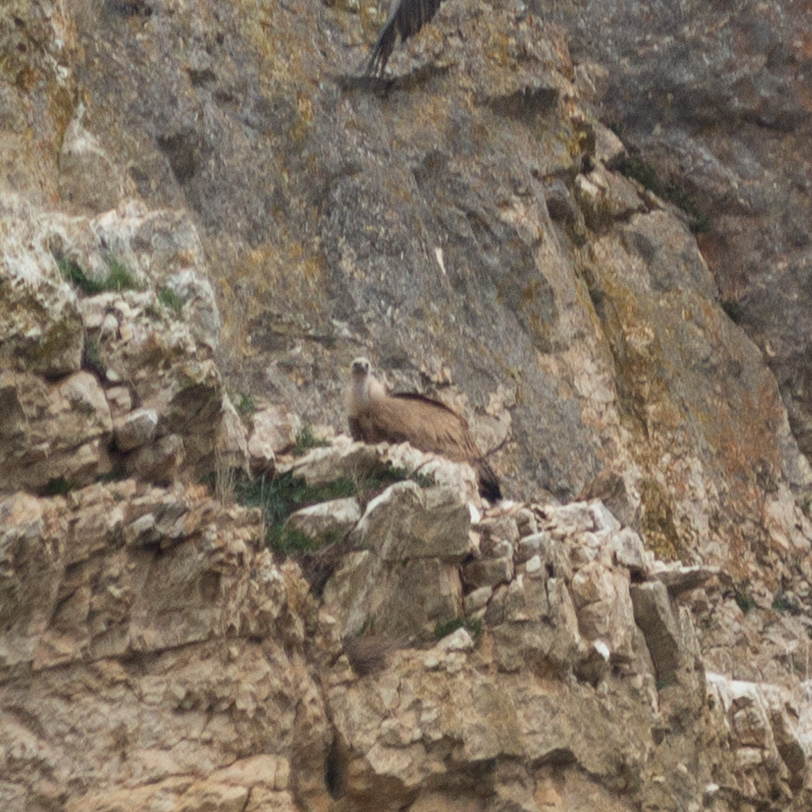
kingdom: Animalia
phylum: Chordata
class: Aves
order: Accipitriformes
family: Accipitridae
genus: Gyps
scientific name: Gyps fulvus
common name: Griffon vulture
